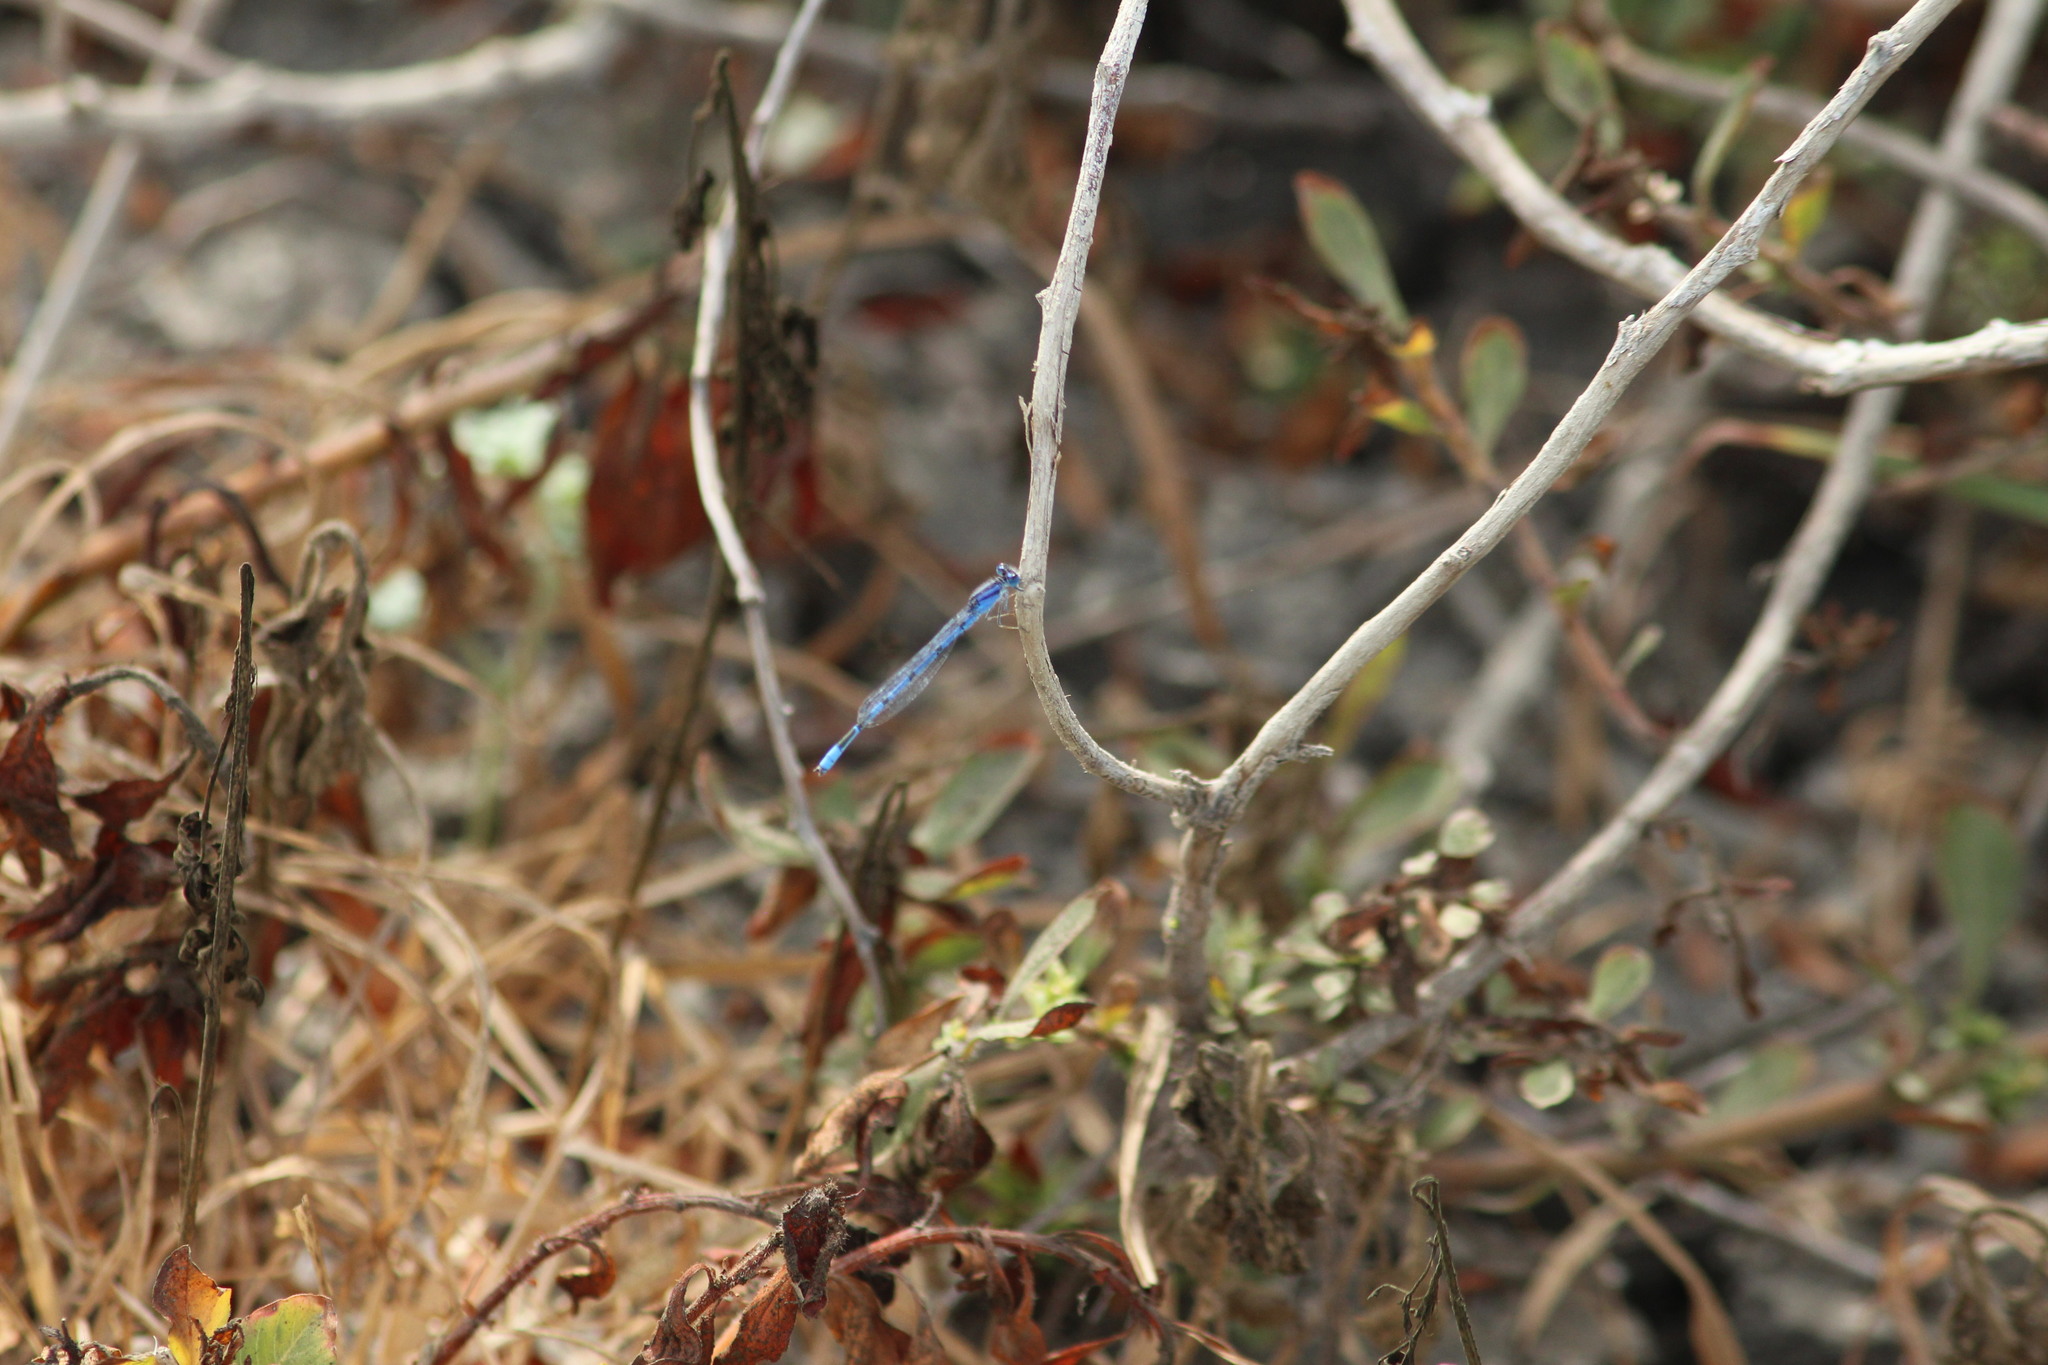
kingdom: Animalia
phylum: Arthropoda
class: Insecta
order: Odonata
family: Coenagrionidae
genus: Enallagma
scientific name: Enallagma civile
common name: Damselfly
